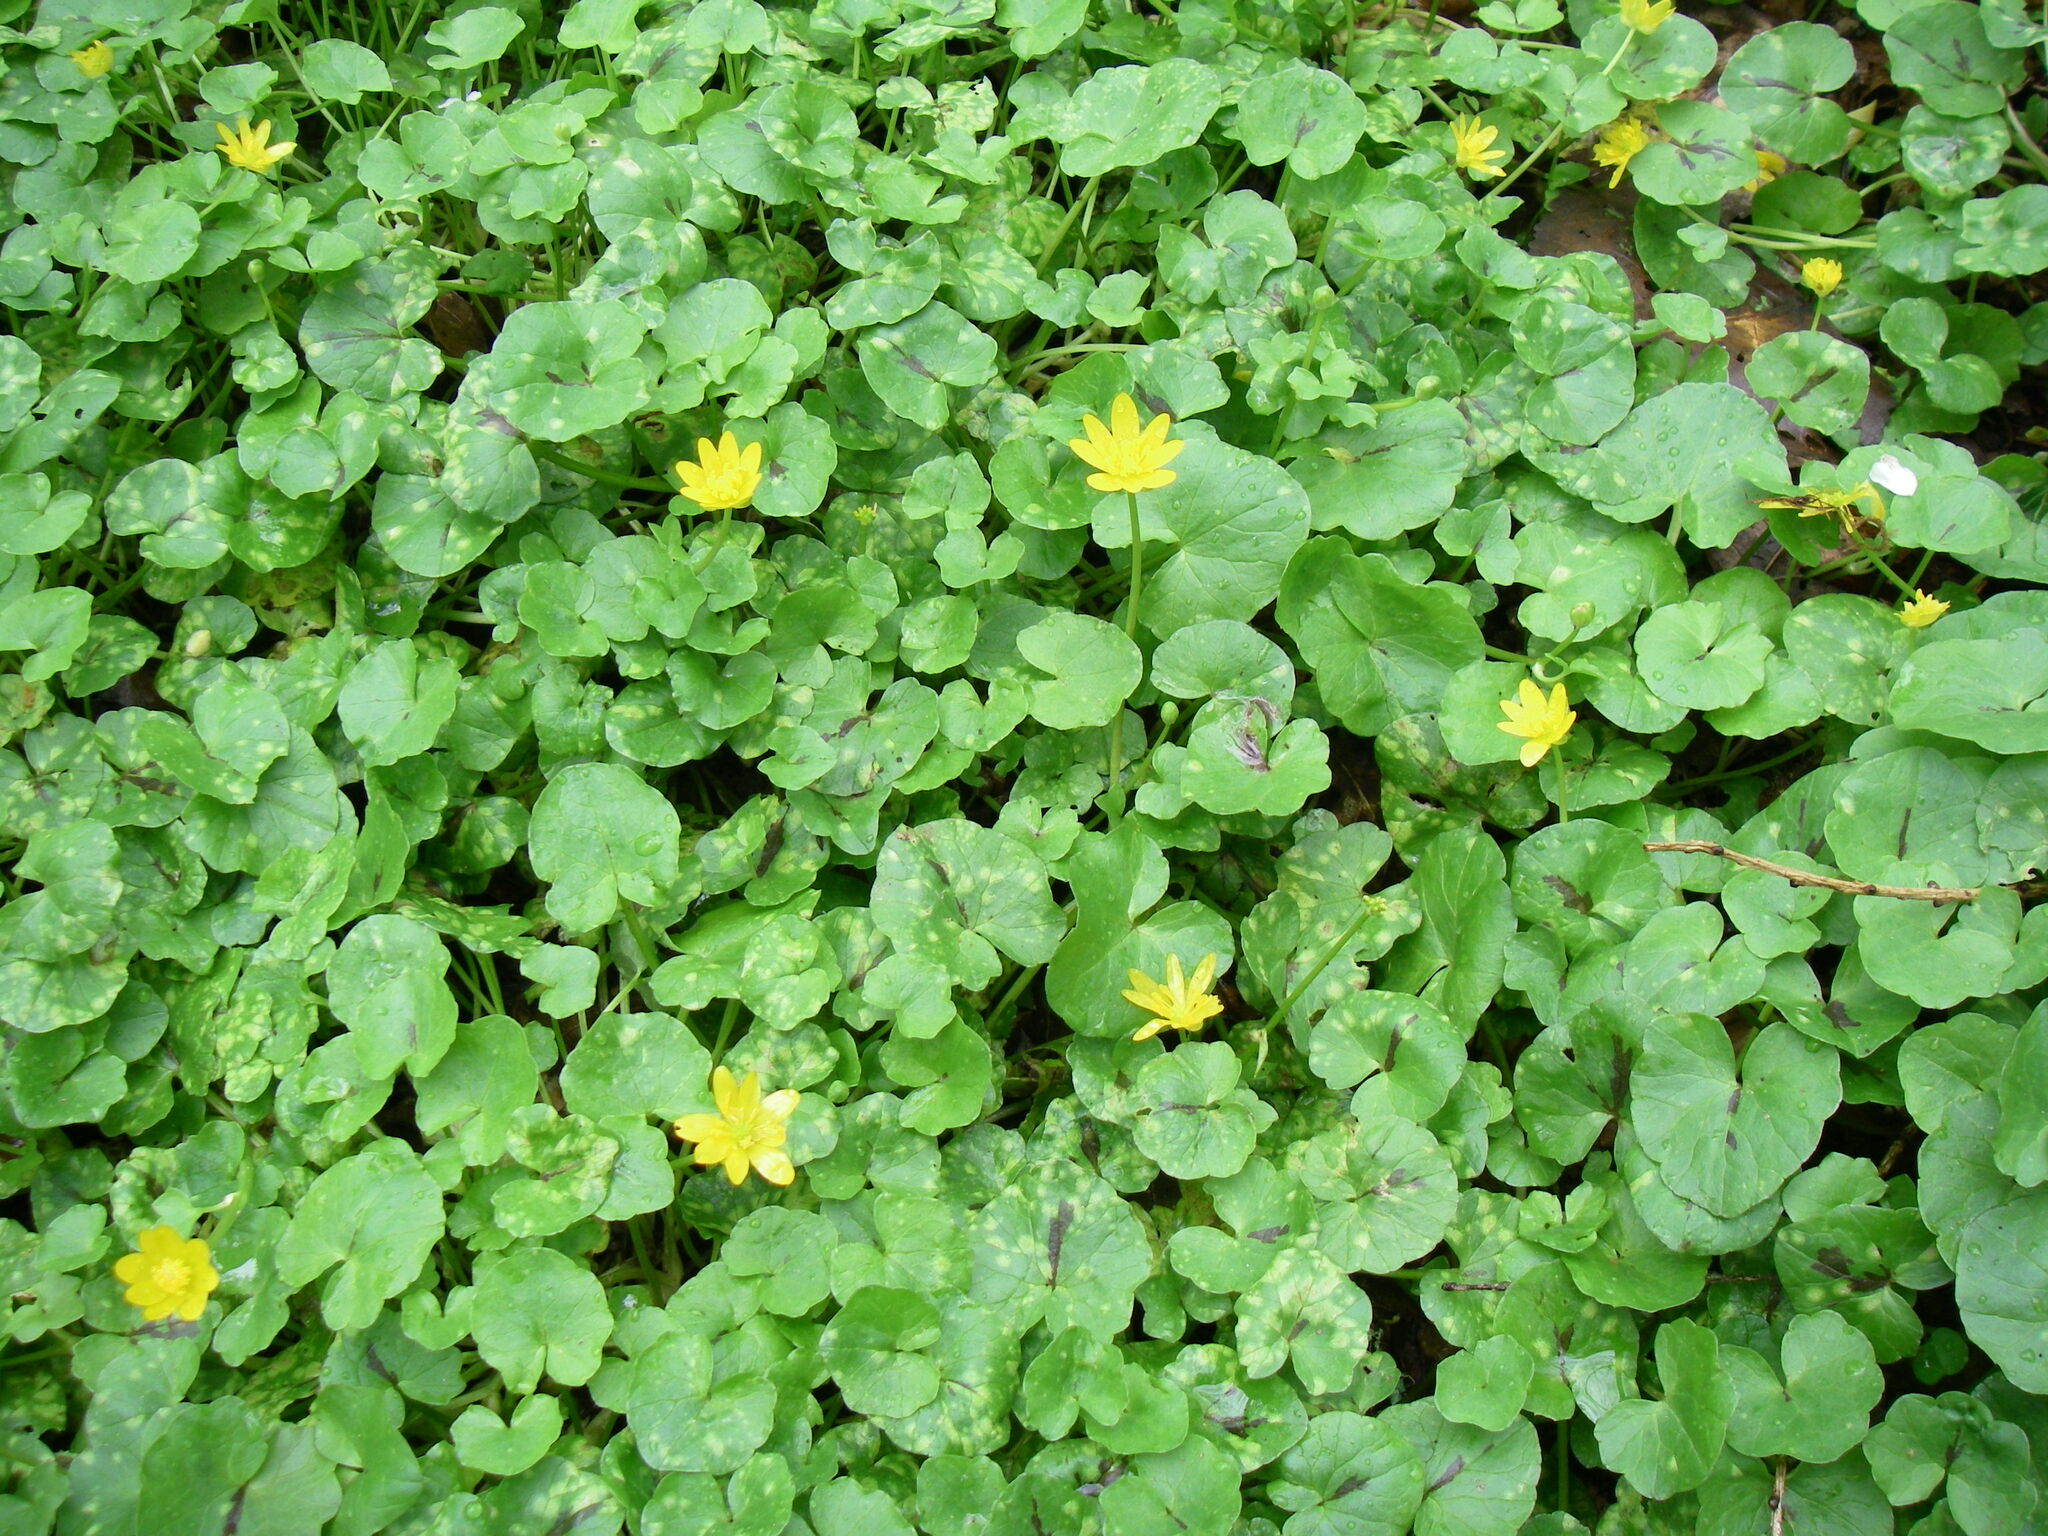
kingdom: Plantae
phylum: Tracheophyta
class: Magnoliopsida
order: Ranunculales
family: Ranunculaceae
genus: Ficaria
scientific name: Ficaria verna
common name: Lesser celandine
